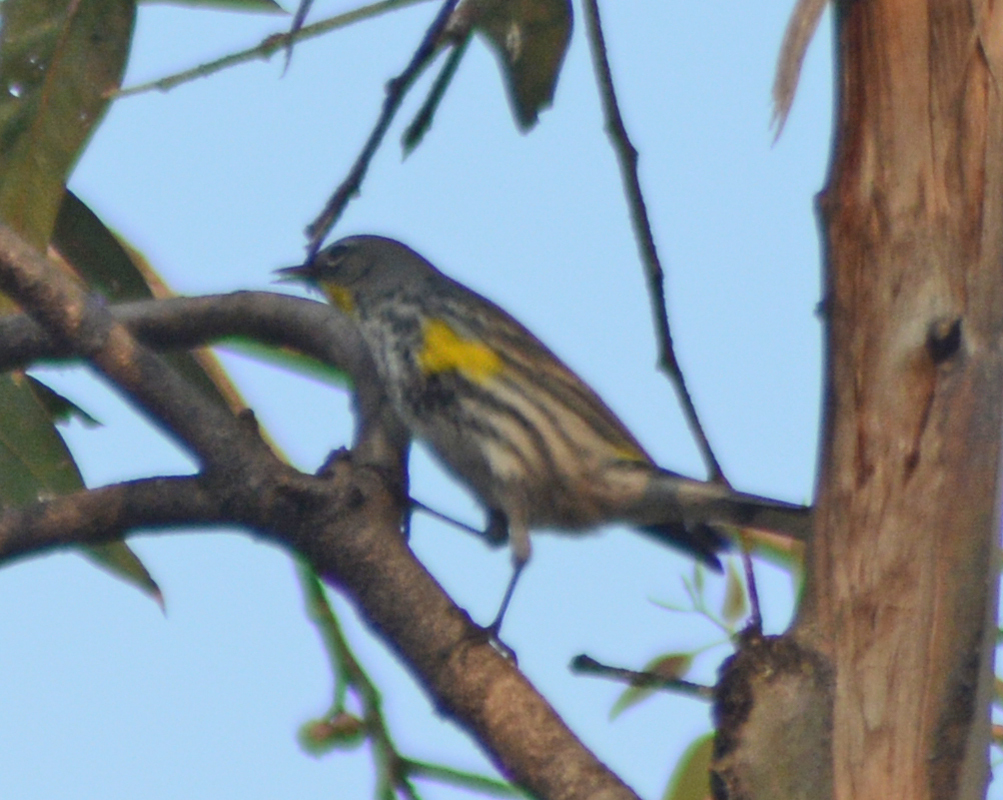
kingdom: Animalia
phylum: Chordata
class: Aves
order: Passeriformes
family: Parulidae
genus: Setophaga
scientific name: Setophaga auduboni
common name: Audubon's warbler
